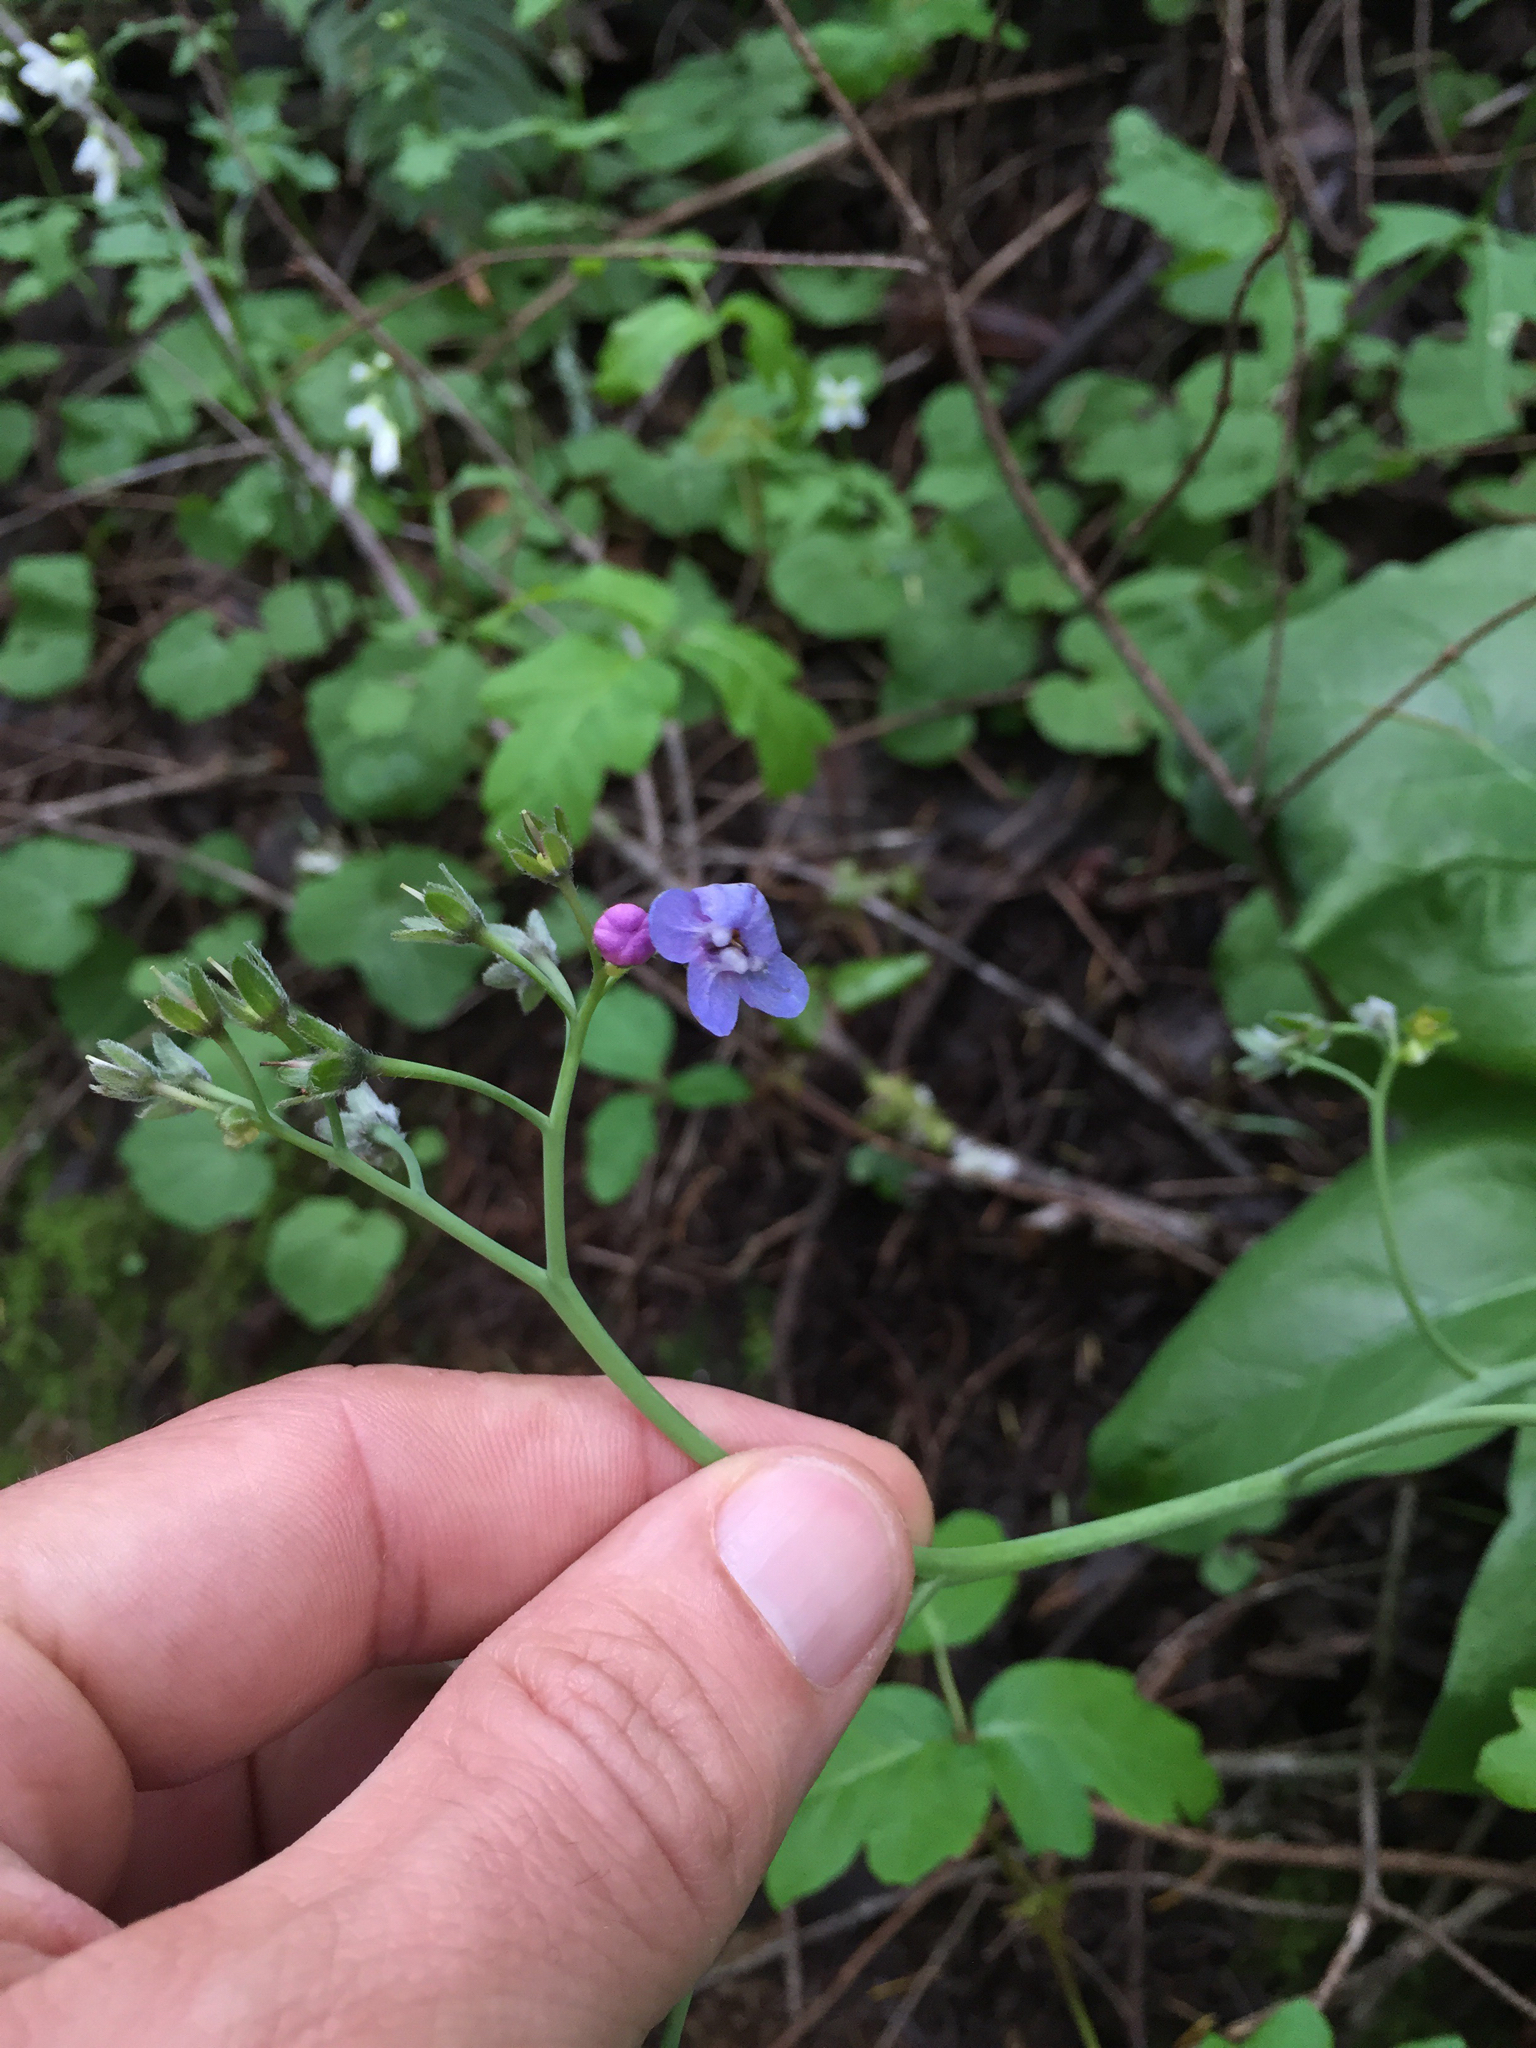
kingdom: Plantae
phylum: Tracheophyta
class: Magnoliopsida
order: Boraginales
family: Boraginaceae
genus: Adelinia
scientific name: Adelinia grande
